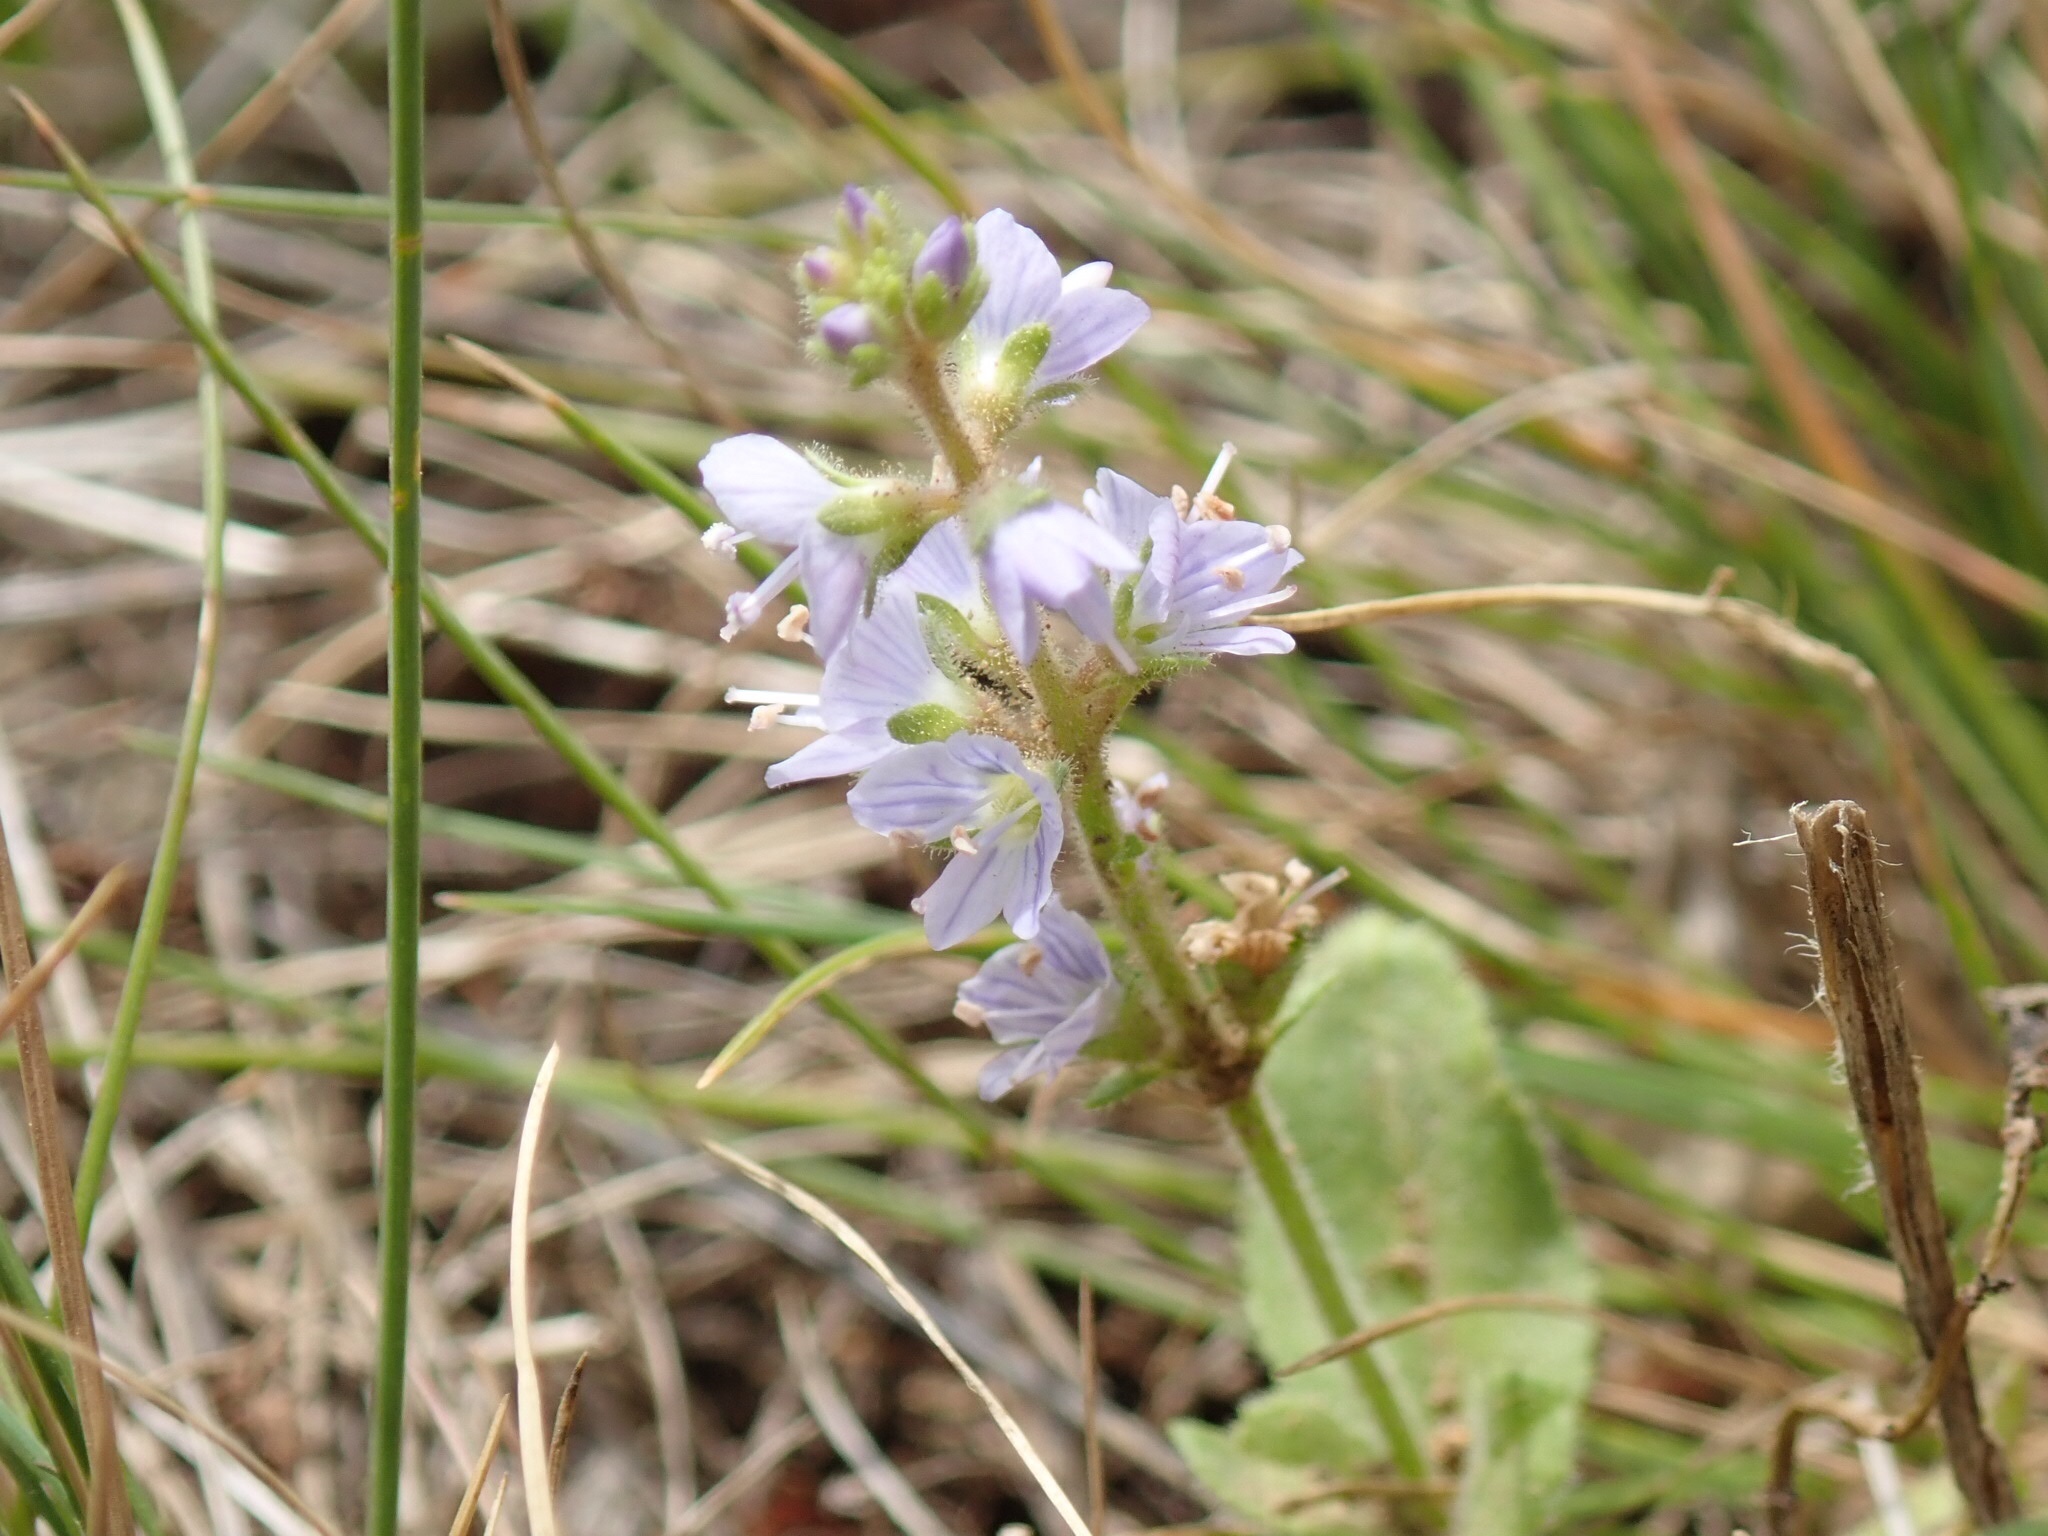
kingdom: Plantae
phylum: Tracheophyta
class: Magnoliopsida
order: Lamiales
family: Plantaginaceae
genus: Veronica
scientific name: Veronica officinalis
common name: Common speedwell
